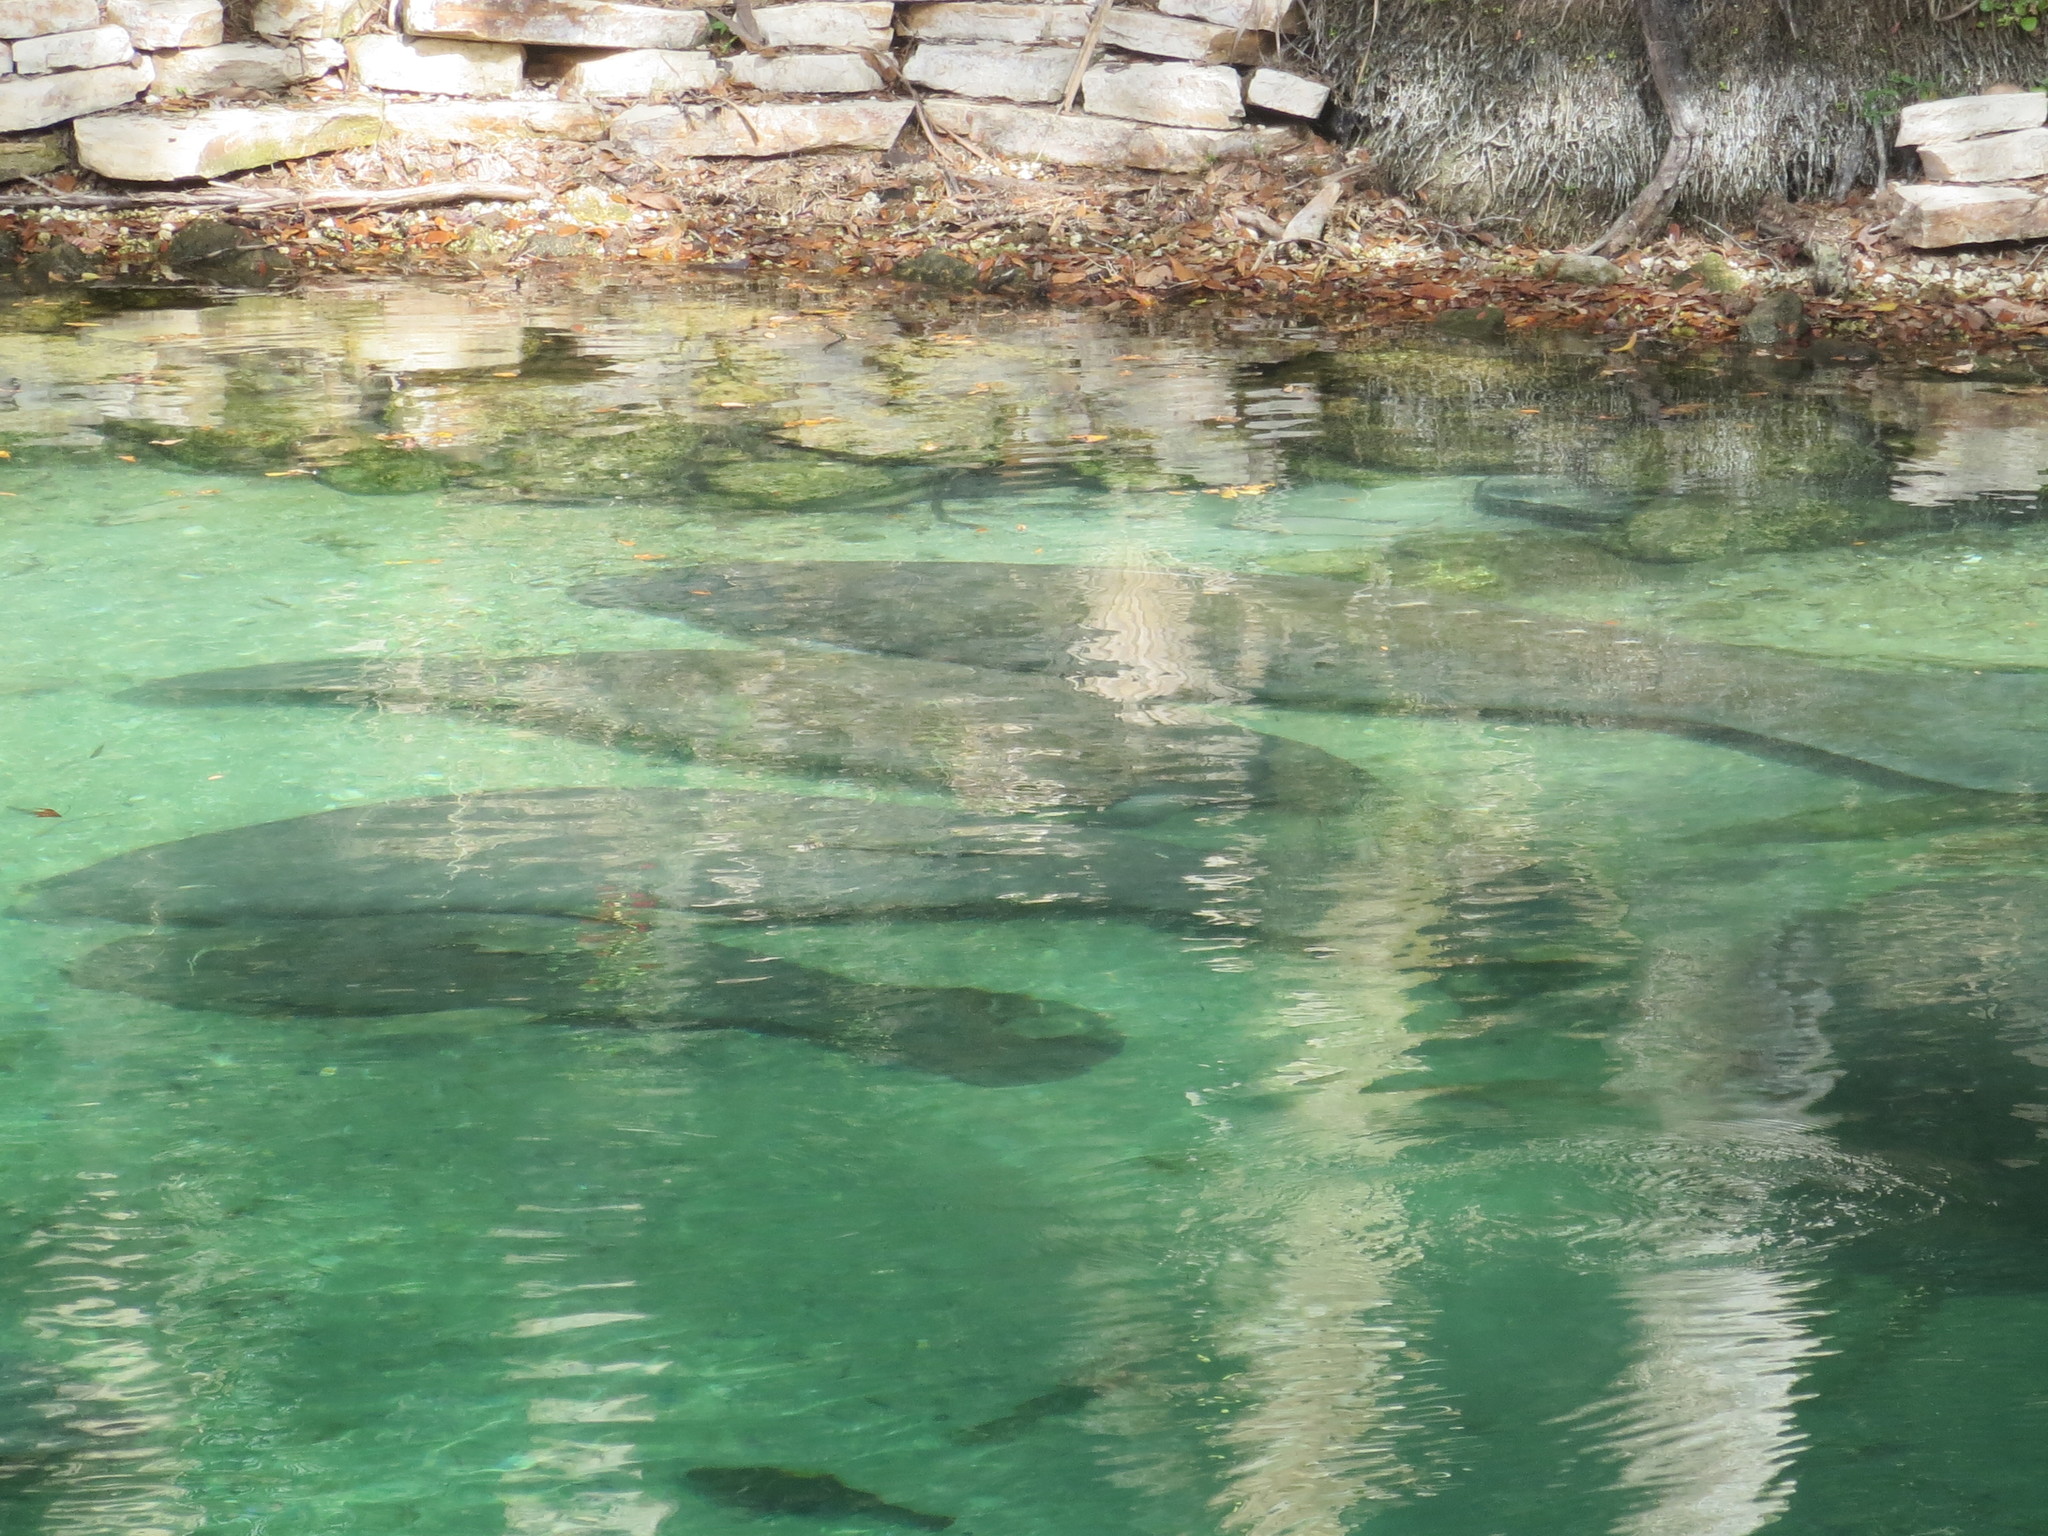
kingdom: Animalia
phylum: Chordata
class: Mammalia
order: Sirenia
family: Trichechidae
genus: Trichechus
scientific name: Trichechus manatus
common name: West indian manatee
